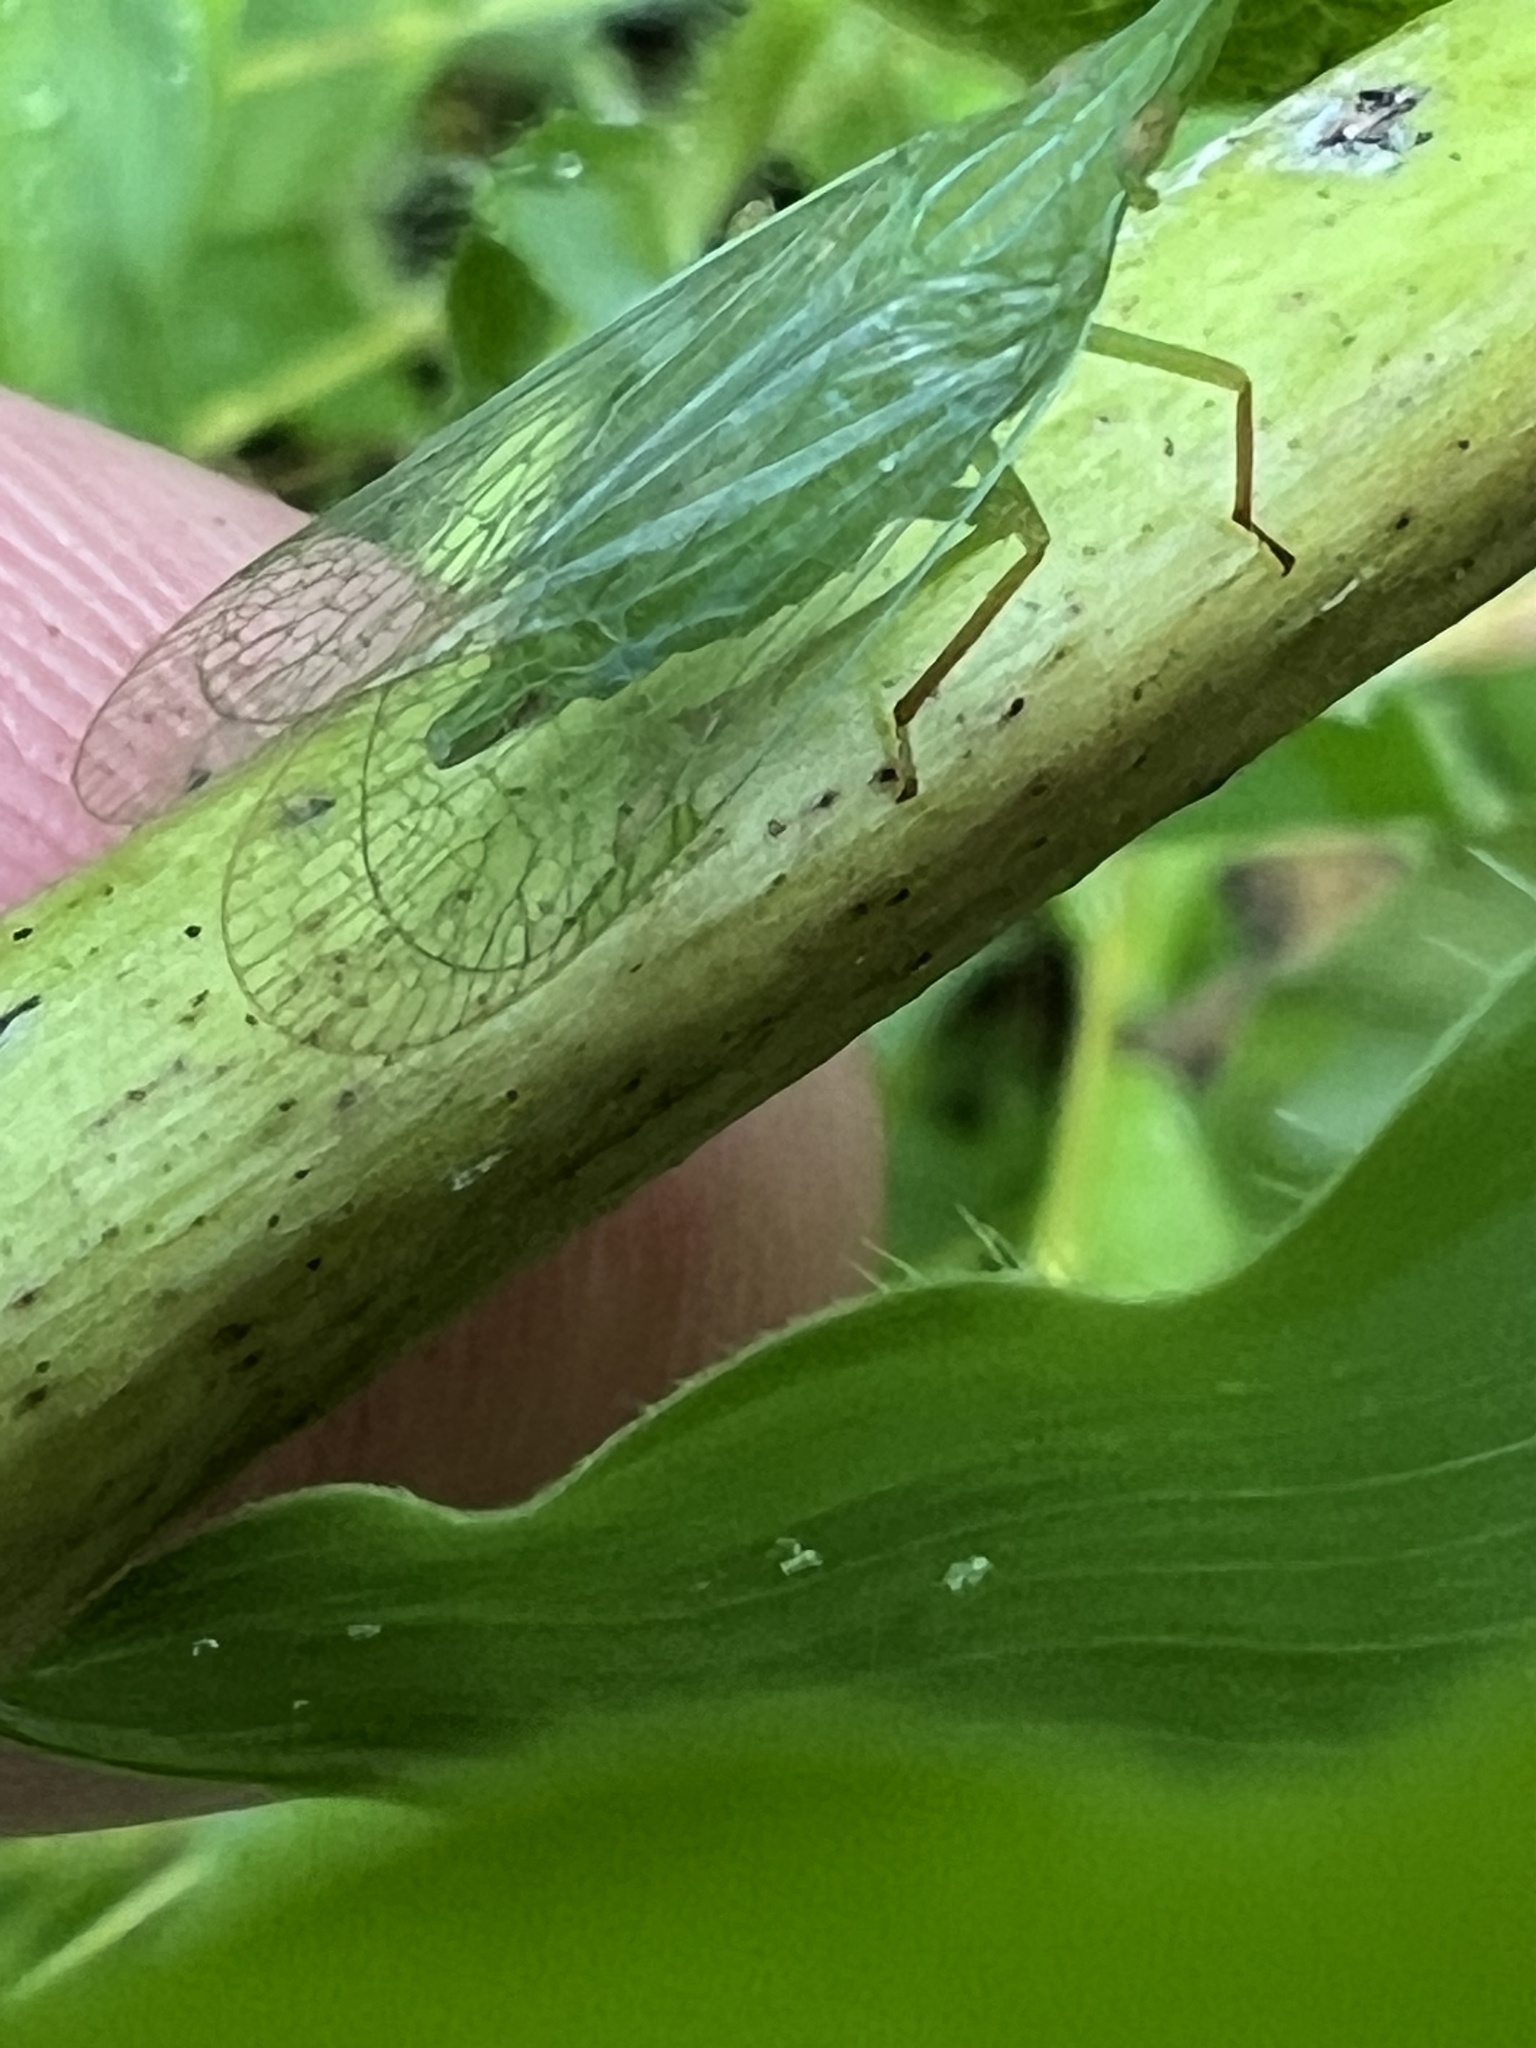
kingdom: Animalia
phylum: Arthropoda
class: Insecta
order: Hemiptera
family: Dictyopharidae
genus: Rhynchomitra
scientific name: Rhynchomitra microrhina
